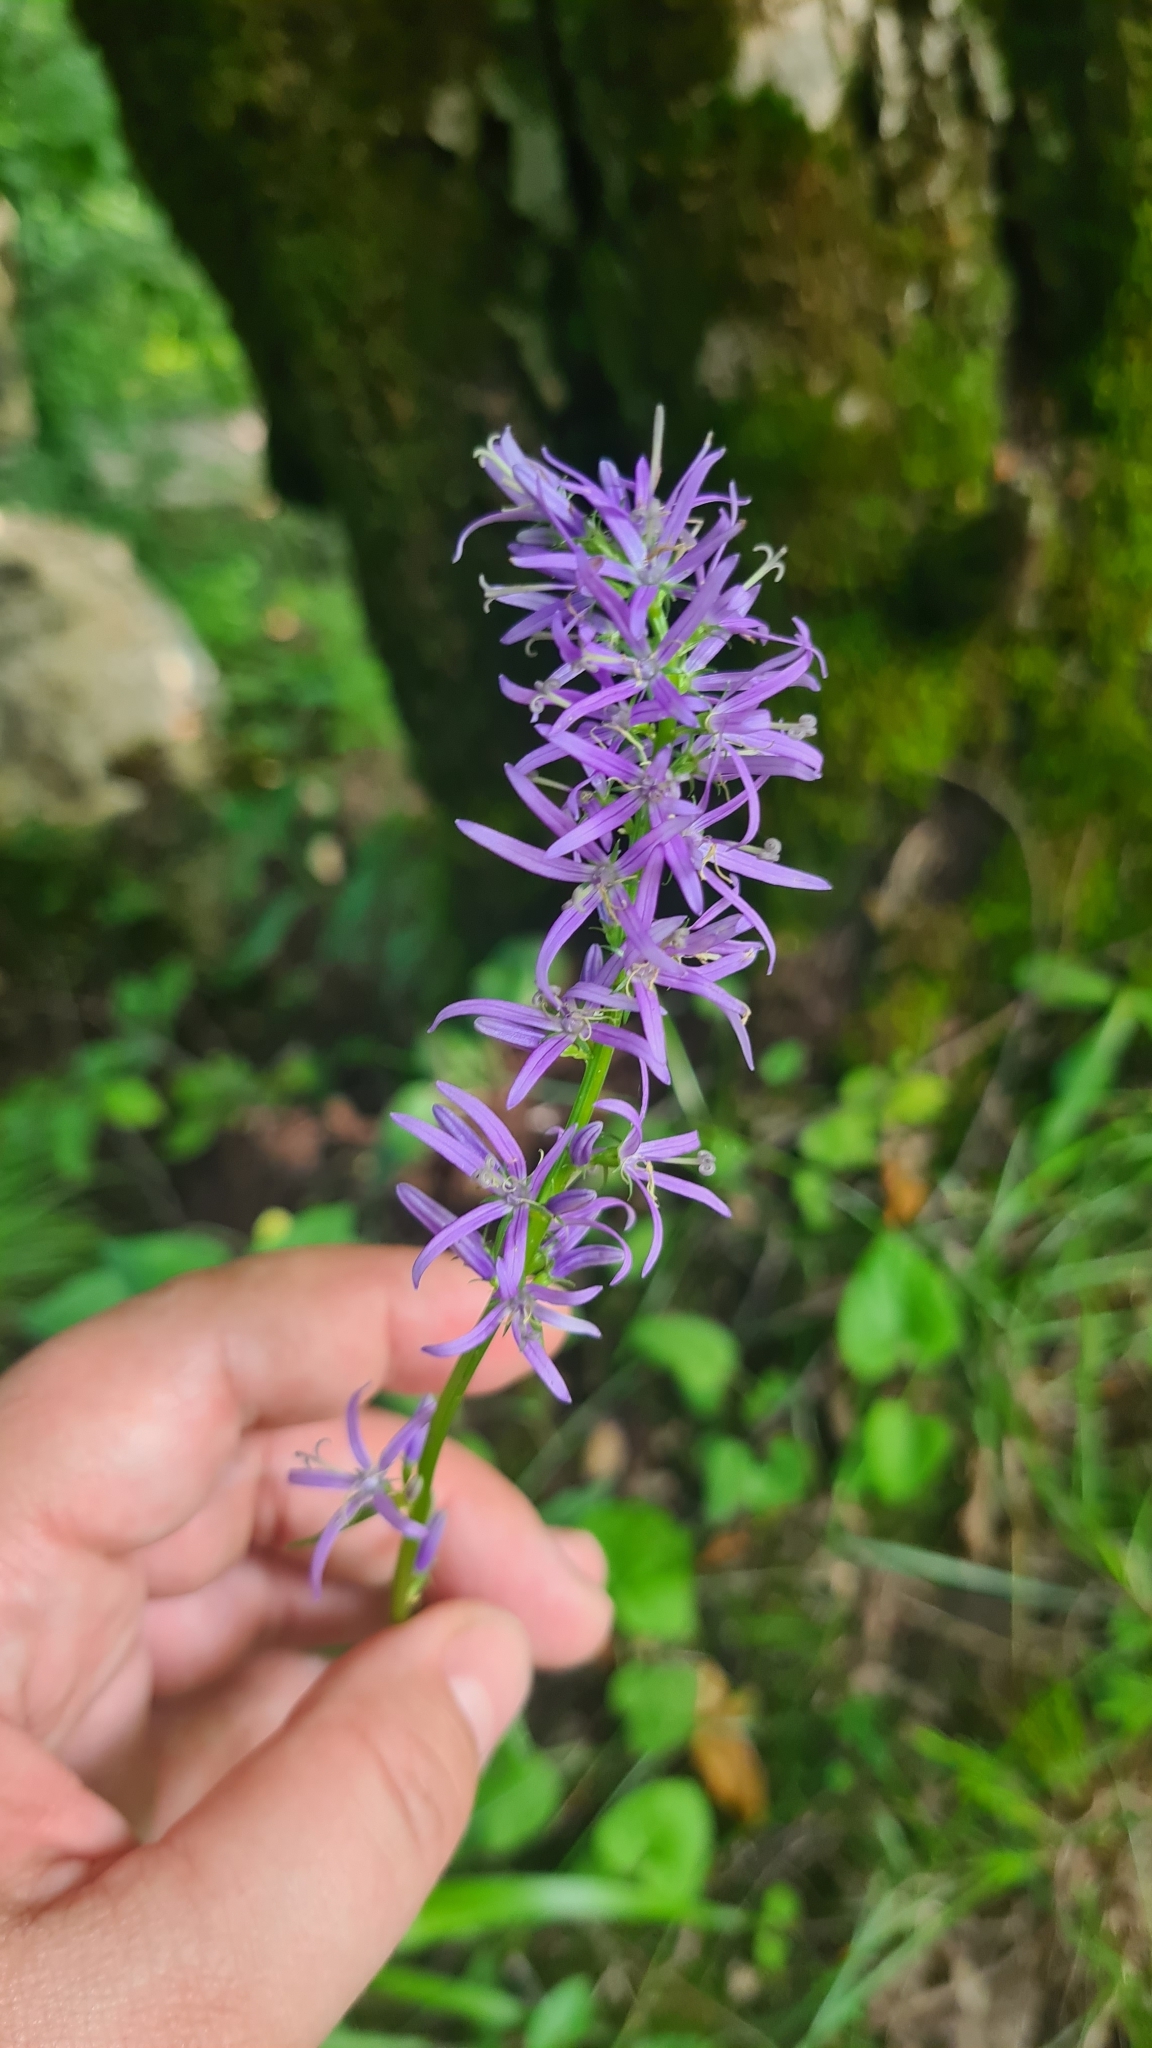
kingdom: Plantae
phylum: Tracheophyta
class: Magnoliopsida
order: Asterales
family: Campanulaceae
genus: Asyneuma
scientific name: Asyneuma campanuloides
